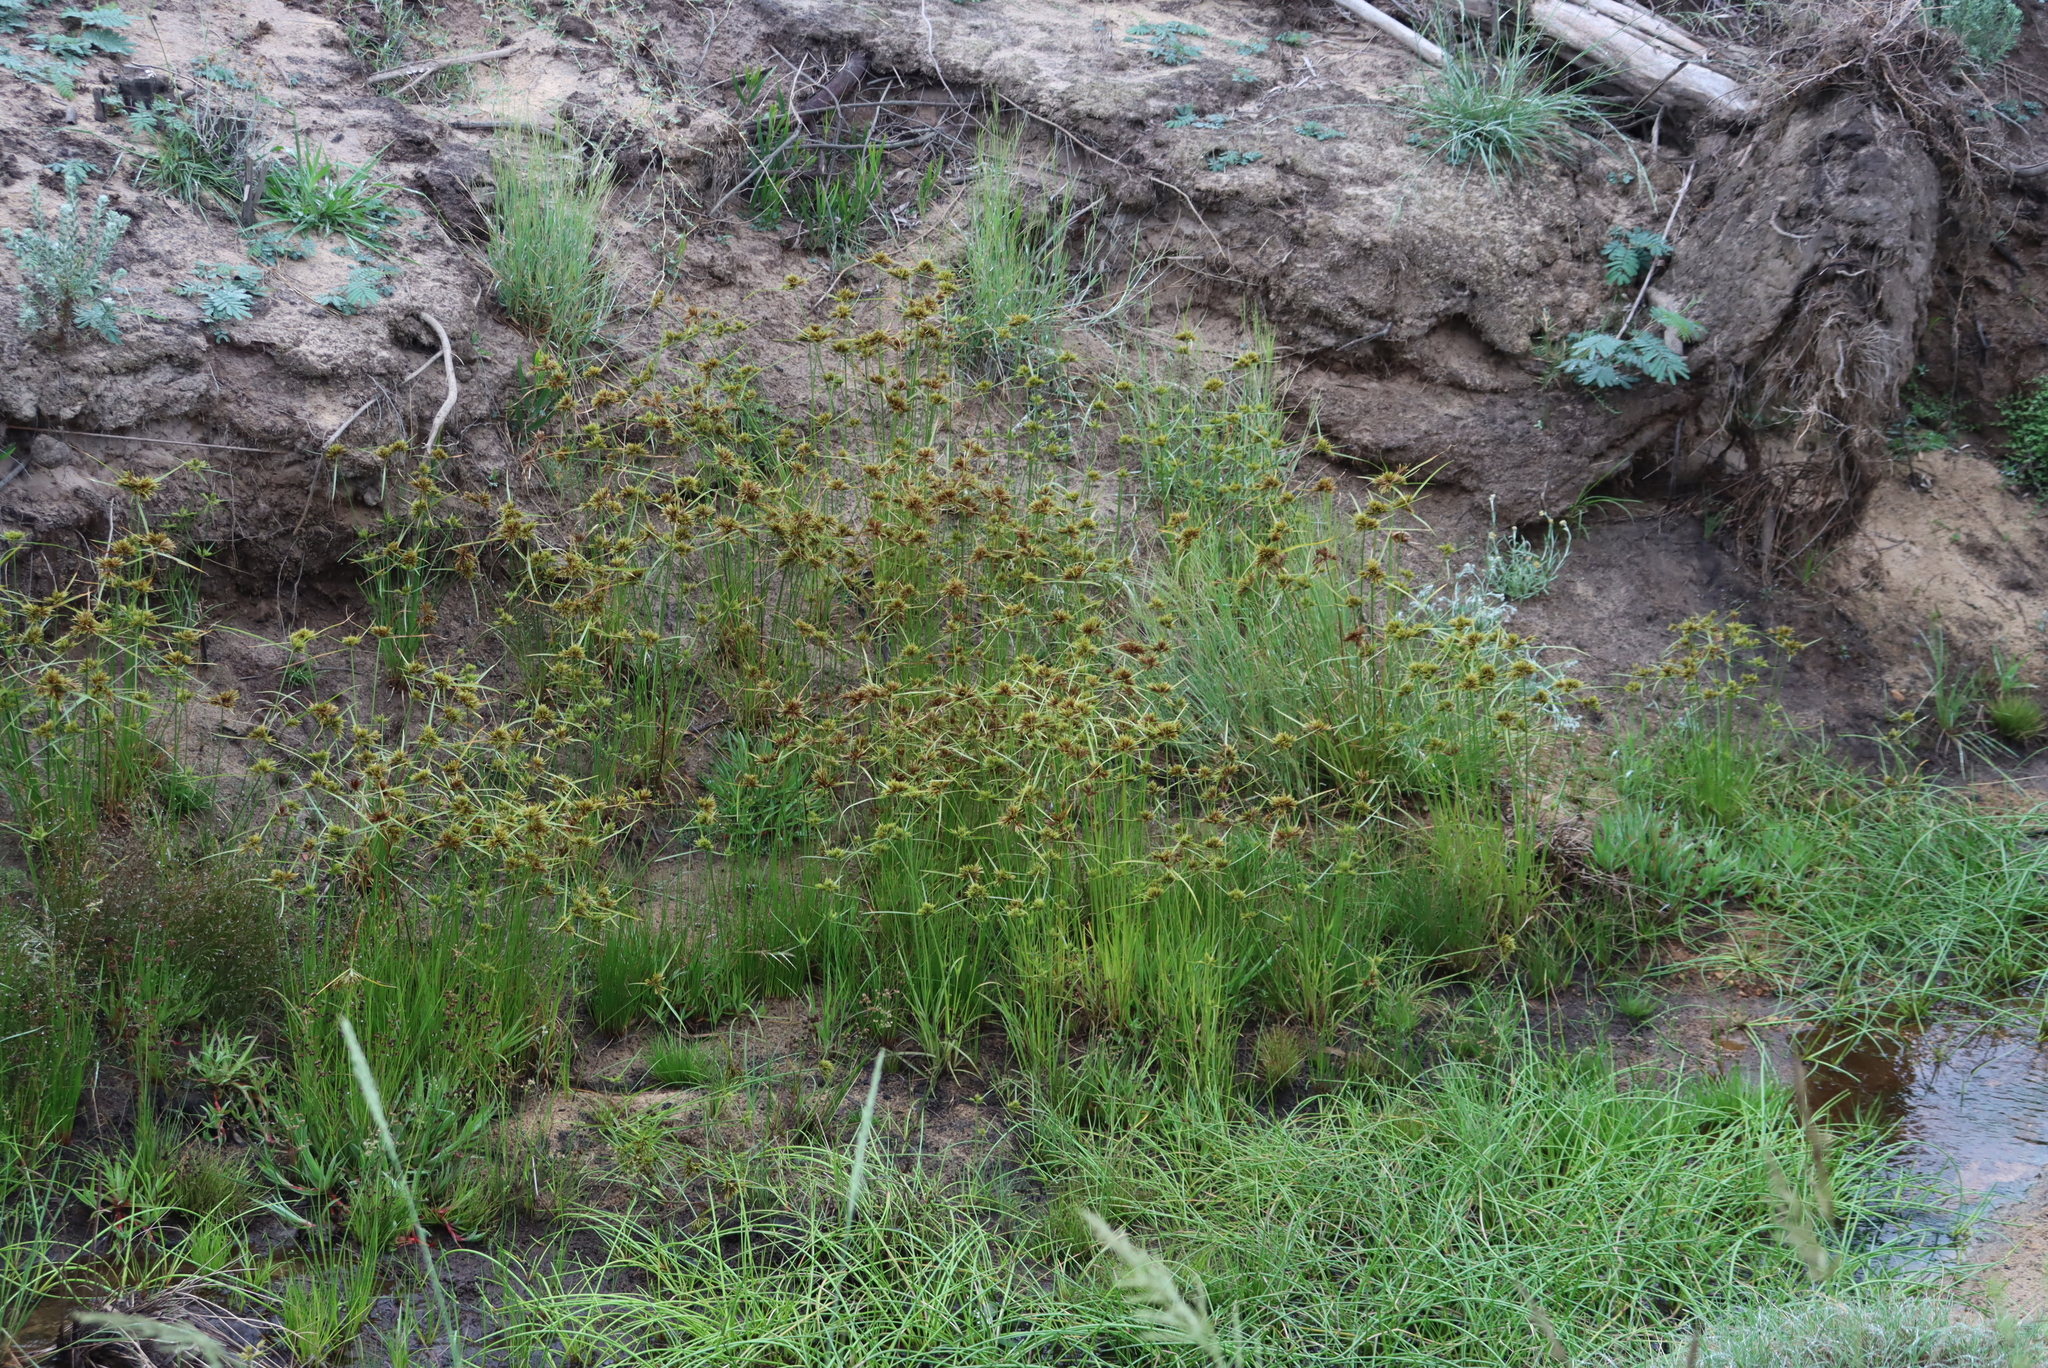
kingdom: Plantae
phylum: Tracheophyta
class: Liliopsida
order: Poales
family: Cyperaceae
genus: Cyperus
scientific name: Cyperus polystachyos
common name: Bunchy flat sedge
